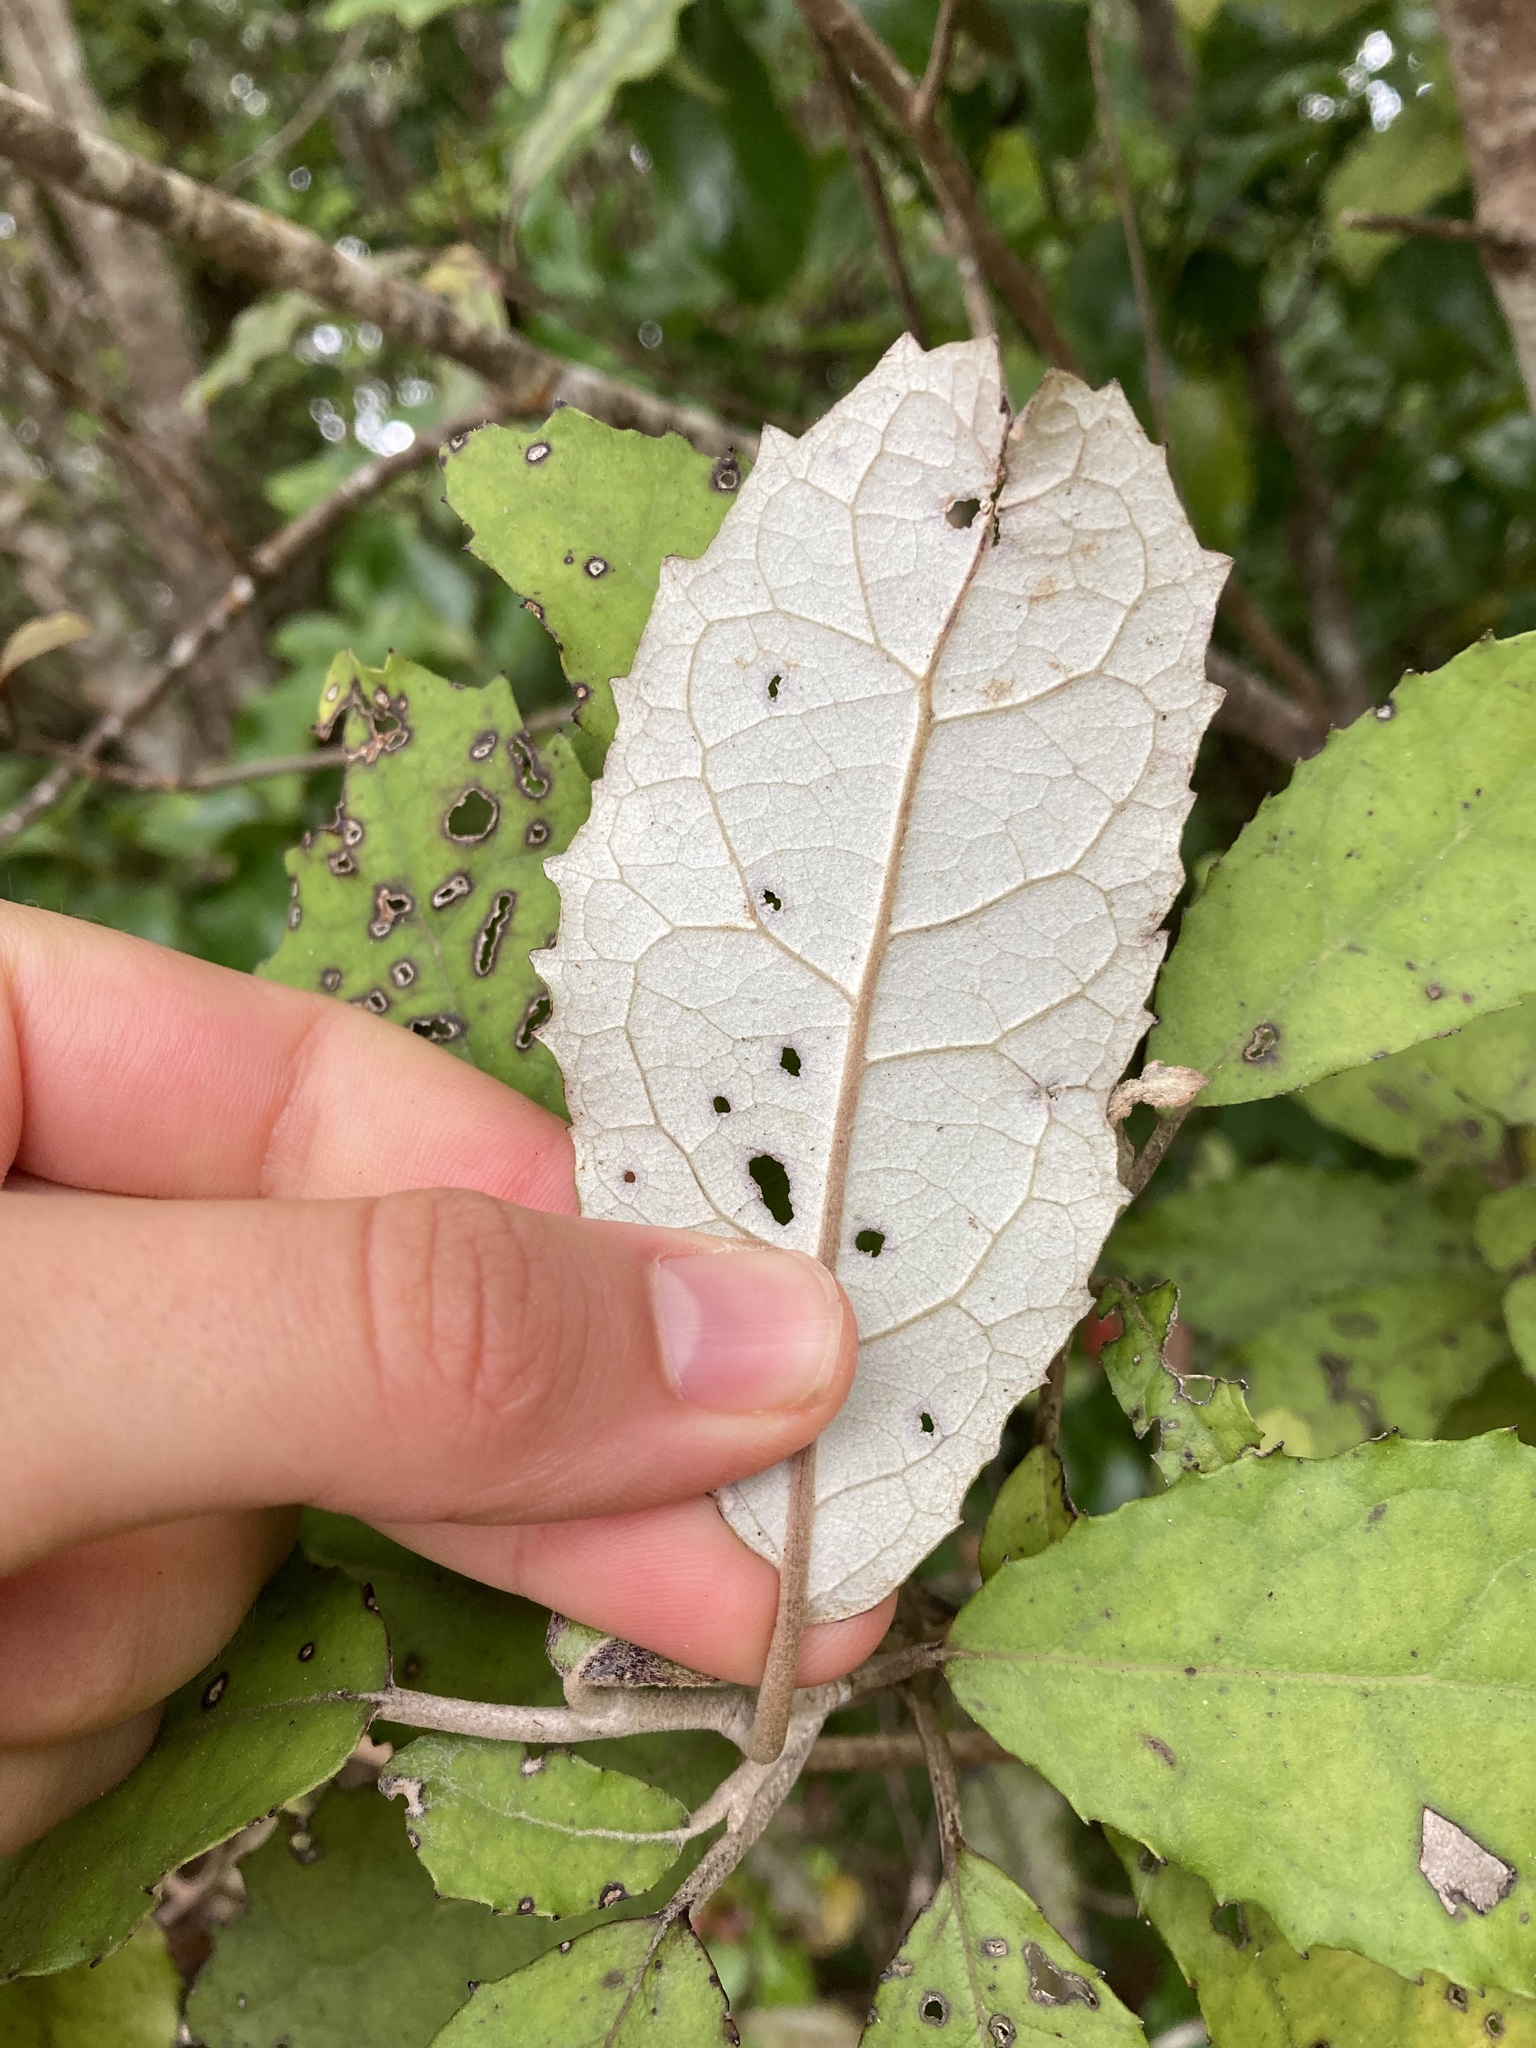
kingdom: Plantae
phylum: Tracheophyta
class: Magnoliopsida
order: Asterales
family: Asteraceae
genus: Olearia
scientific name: Olearia rani
